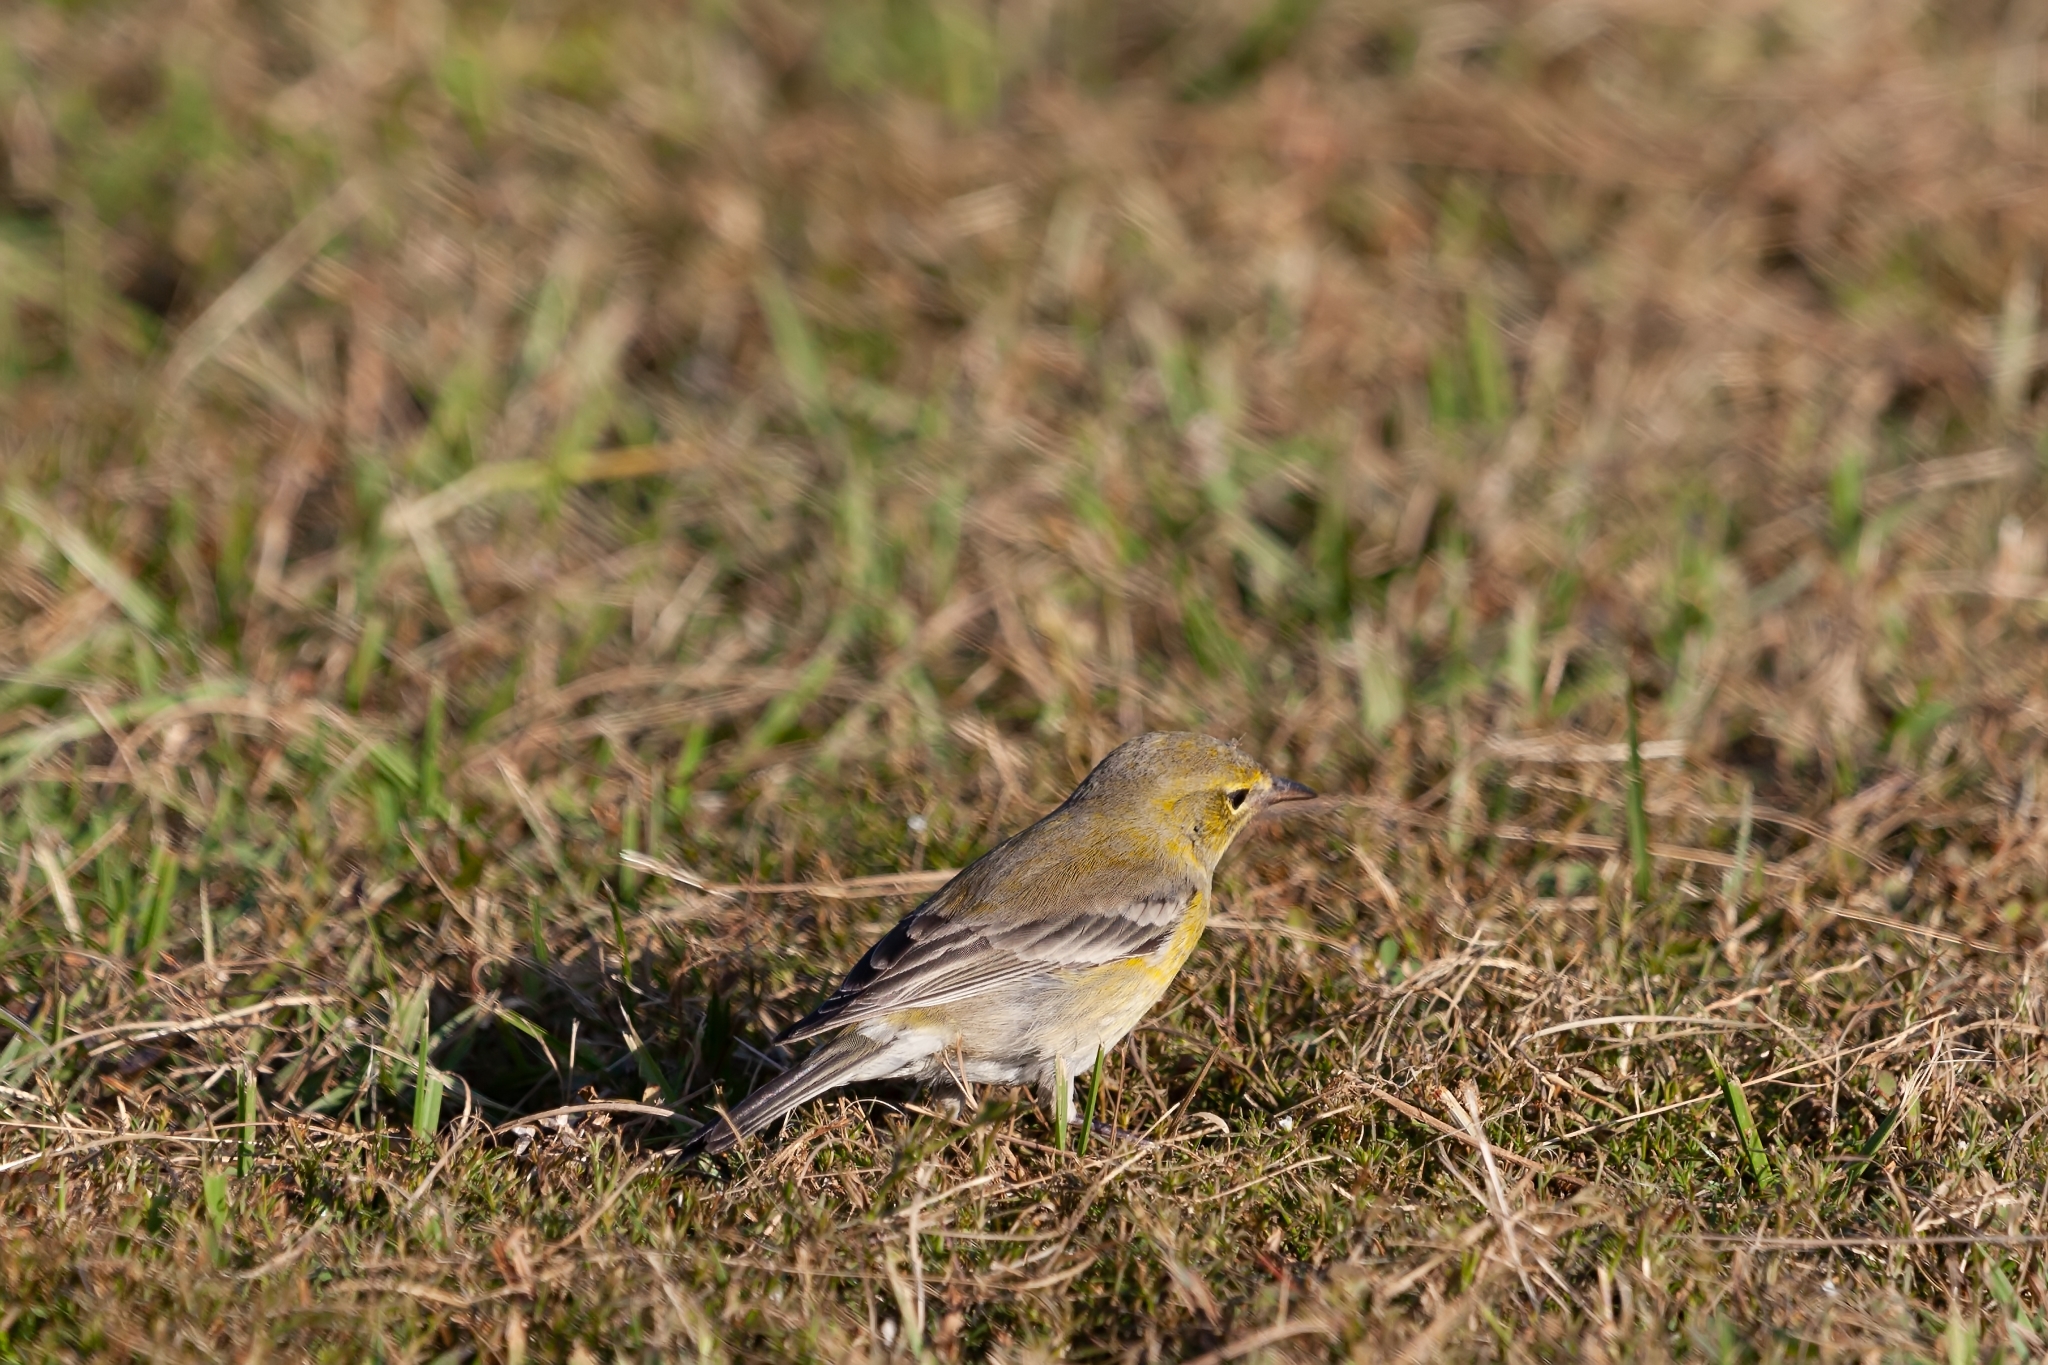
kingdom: Animalia
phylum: Chordata
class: Aves
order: Passeriformes
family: Parulidae
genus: Setophaga
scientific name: Setophaga pinus
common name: Pine warbler
